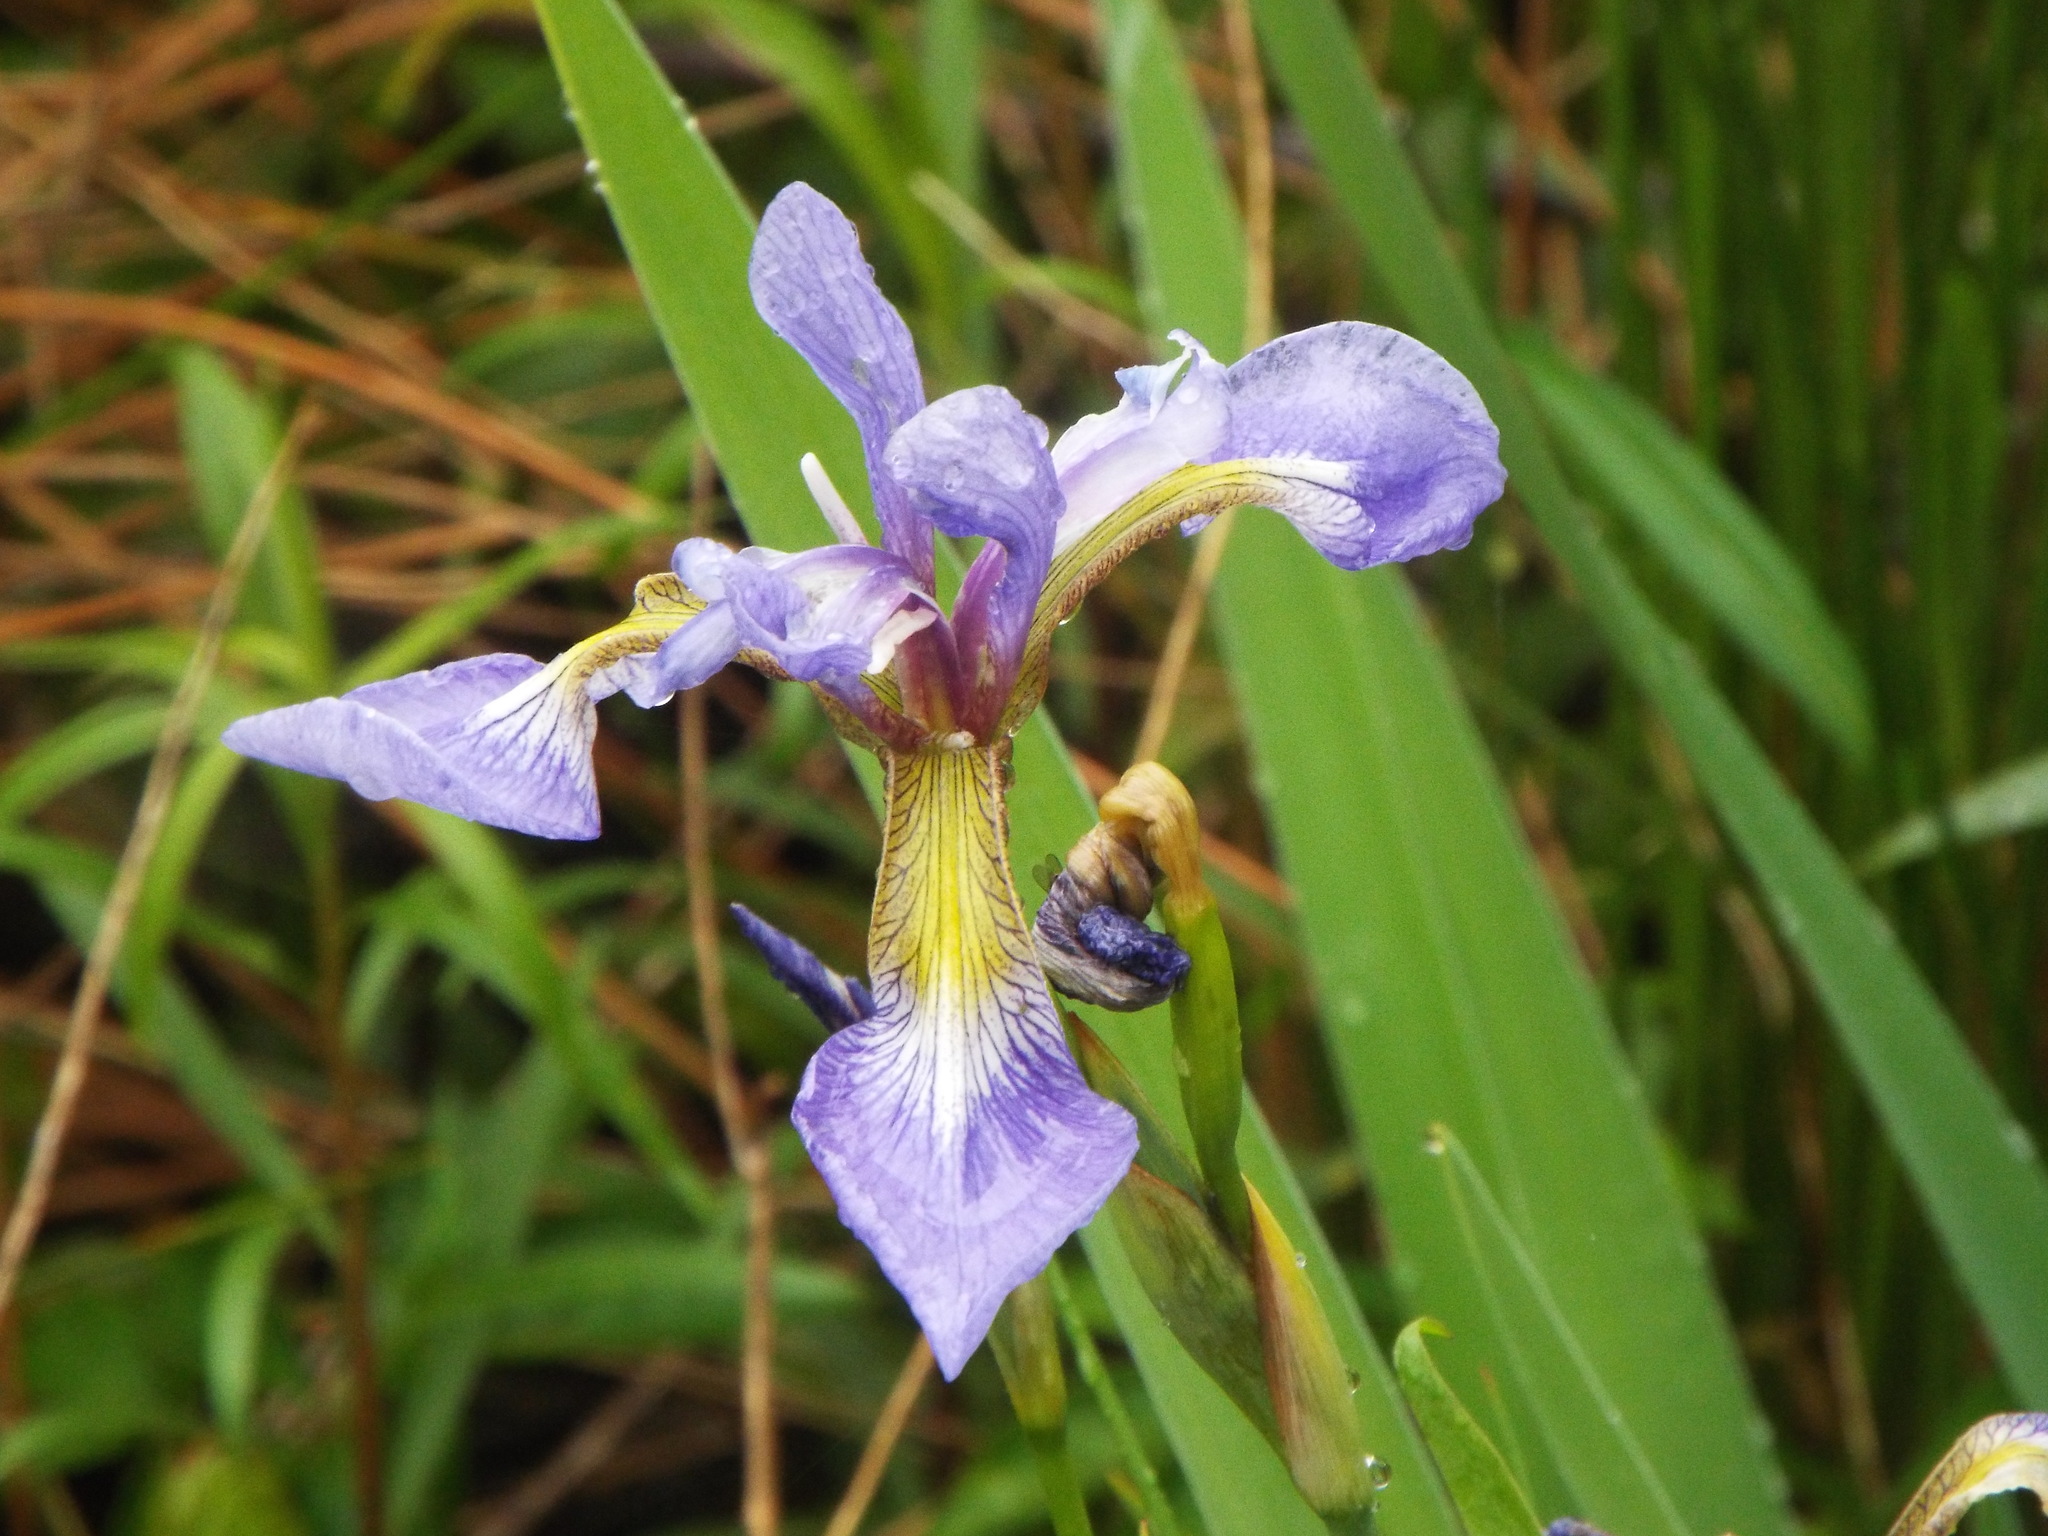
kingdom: Plantae
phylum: Tracheophyta
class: Liliopsida
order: Asparagales
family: Iridaceae
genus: Iris
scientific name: Iris versicolor
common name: Purple iris
